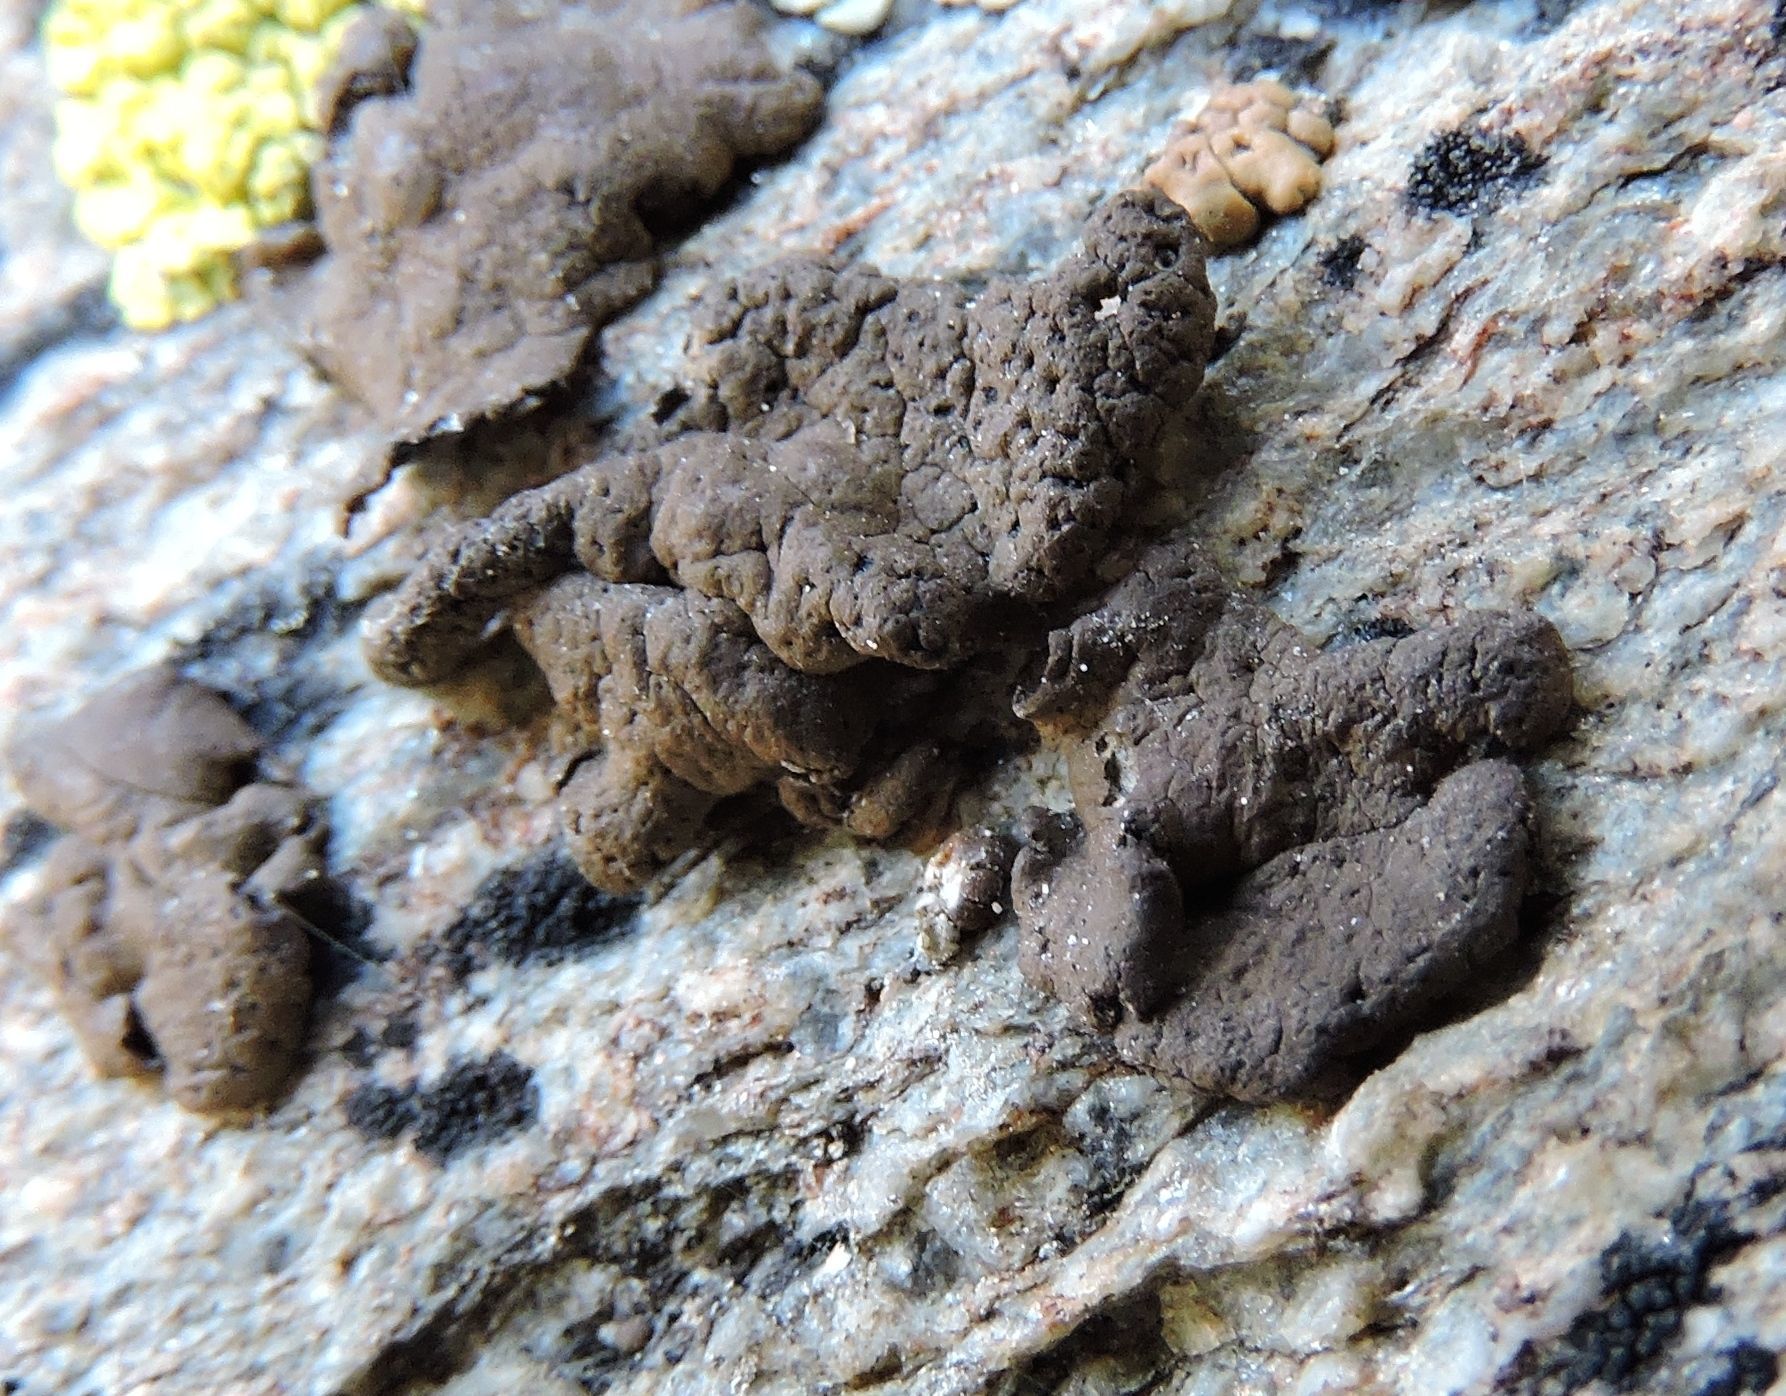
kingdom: Fungi
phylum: Ascomycota
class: Lecanoromycetes
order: Umbilicariales
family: Umbilicariaceae
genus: Umbilicaria
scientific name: Umbilicaria phaea
